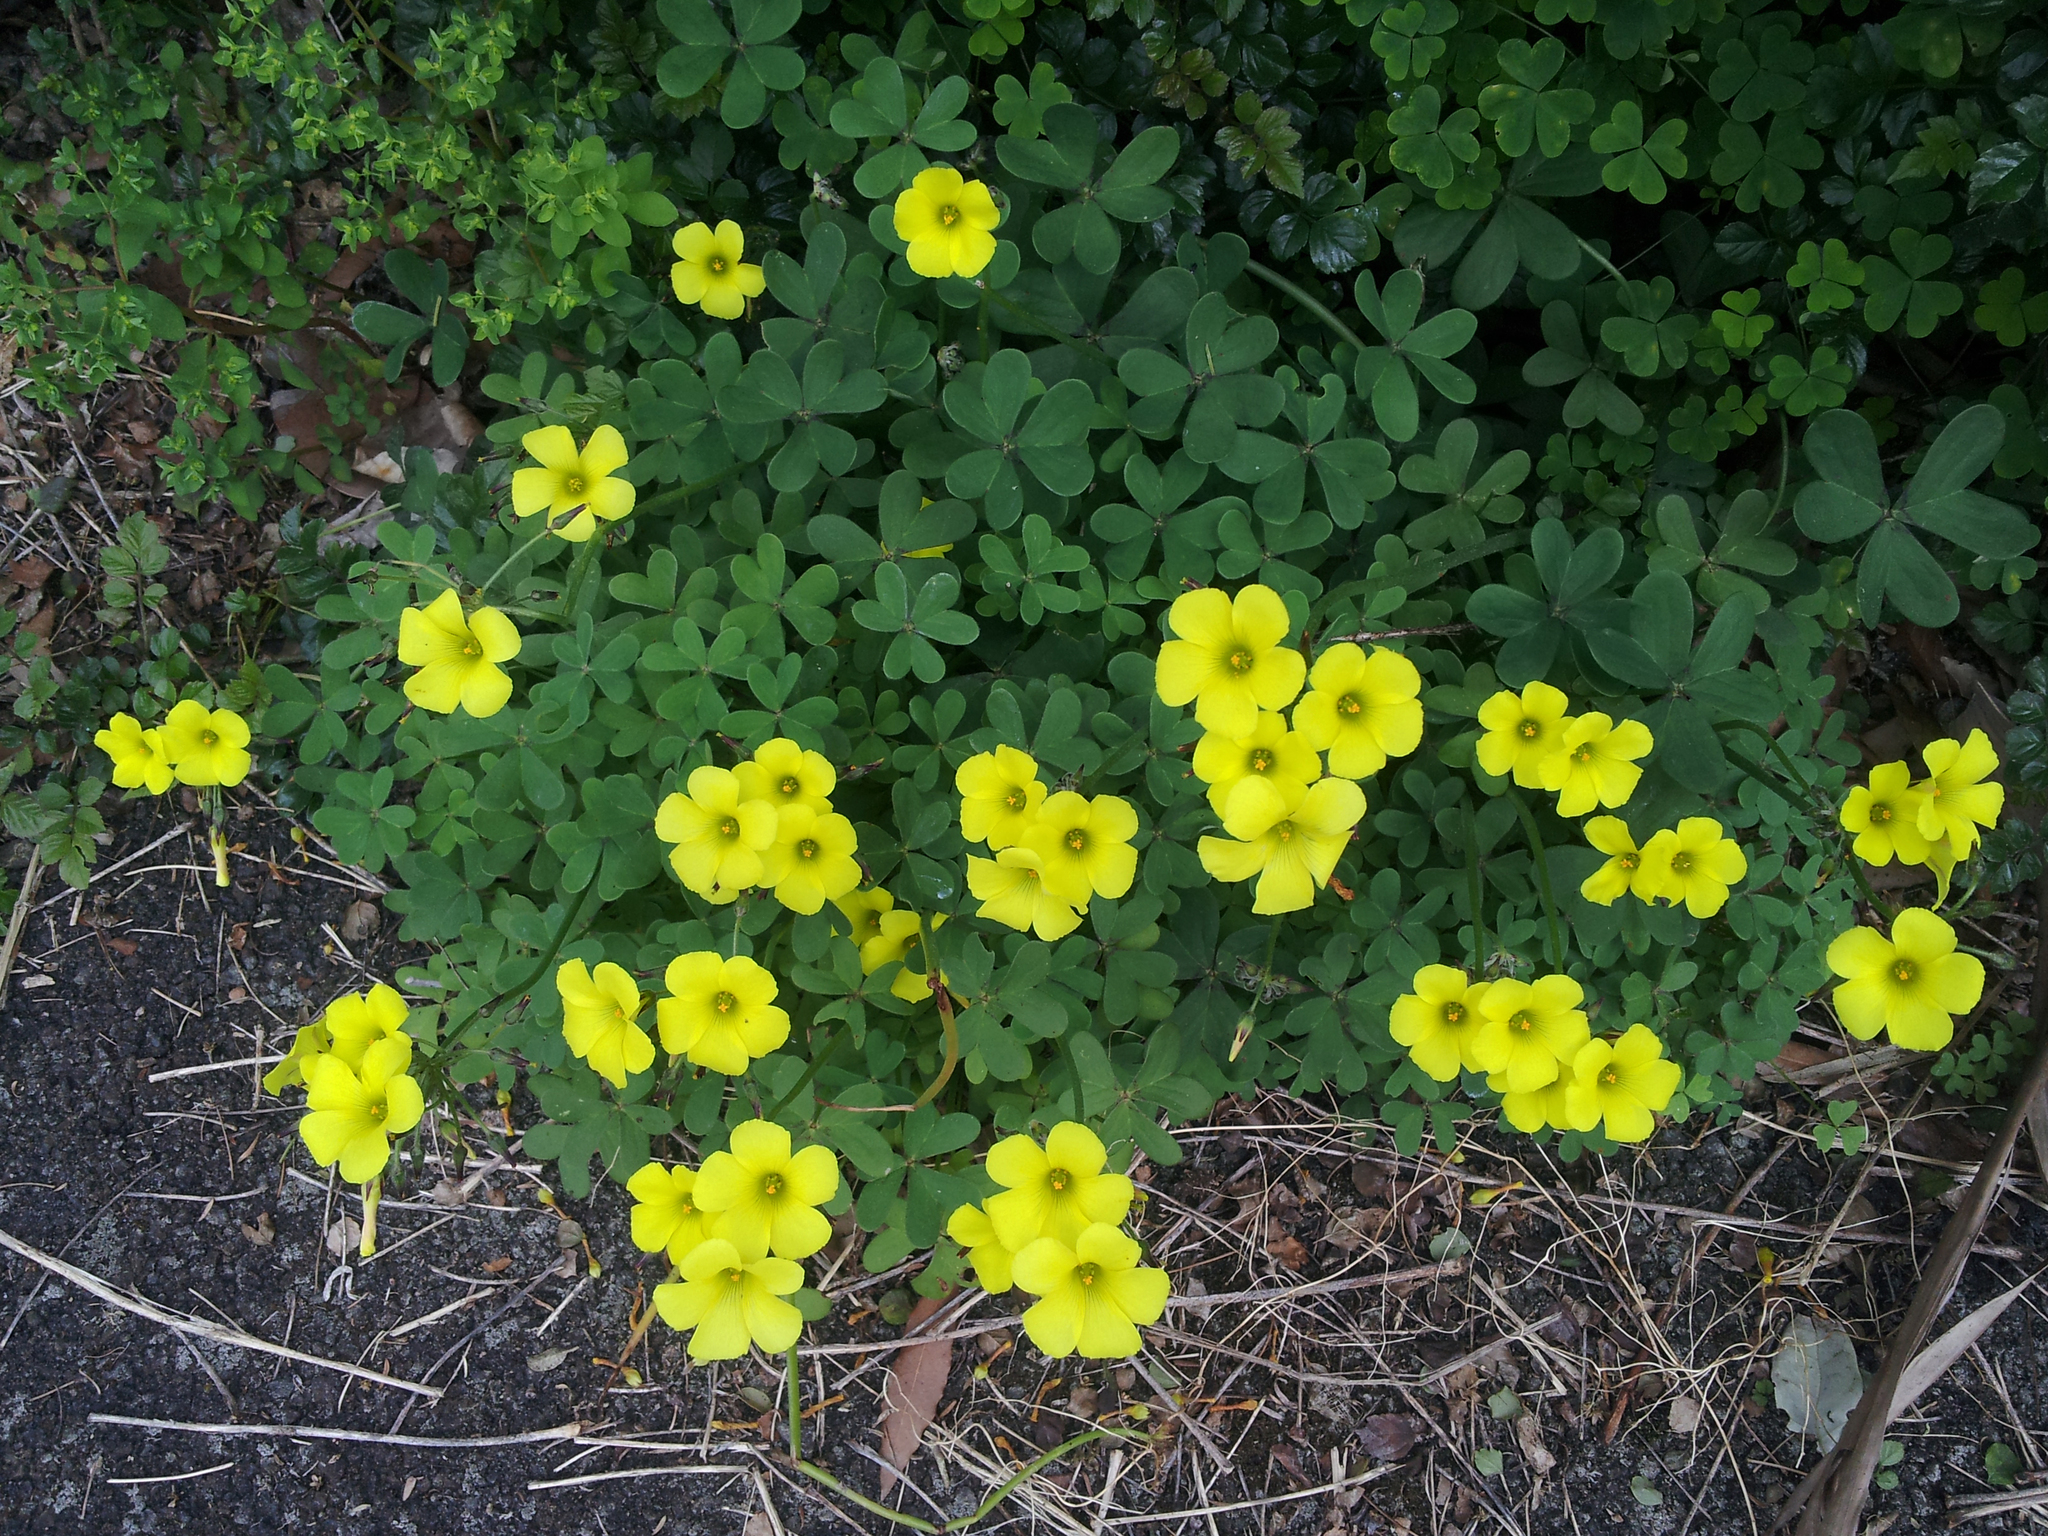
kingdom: Plantae
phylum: Tracheophyta
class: Magnoliopsida
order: Oxalidales
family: Oxalidaceae
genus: Oxalis
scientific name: Oxalis pes-caprae
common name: Bermuda-buttercup
